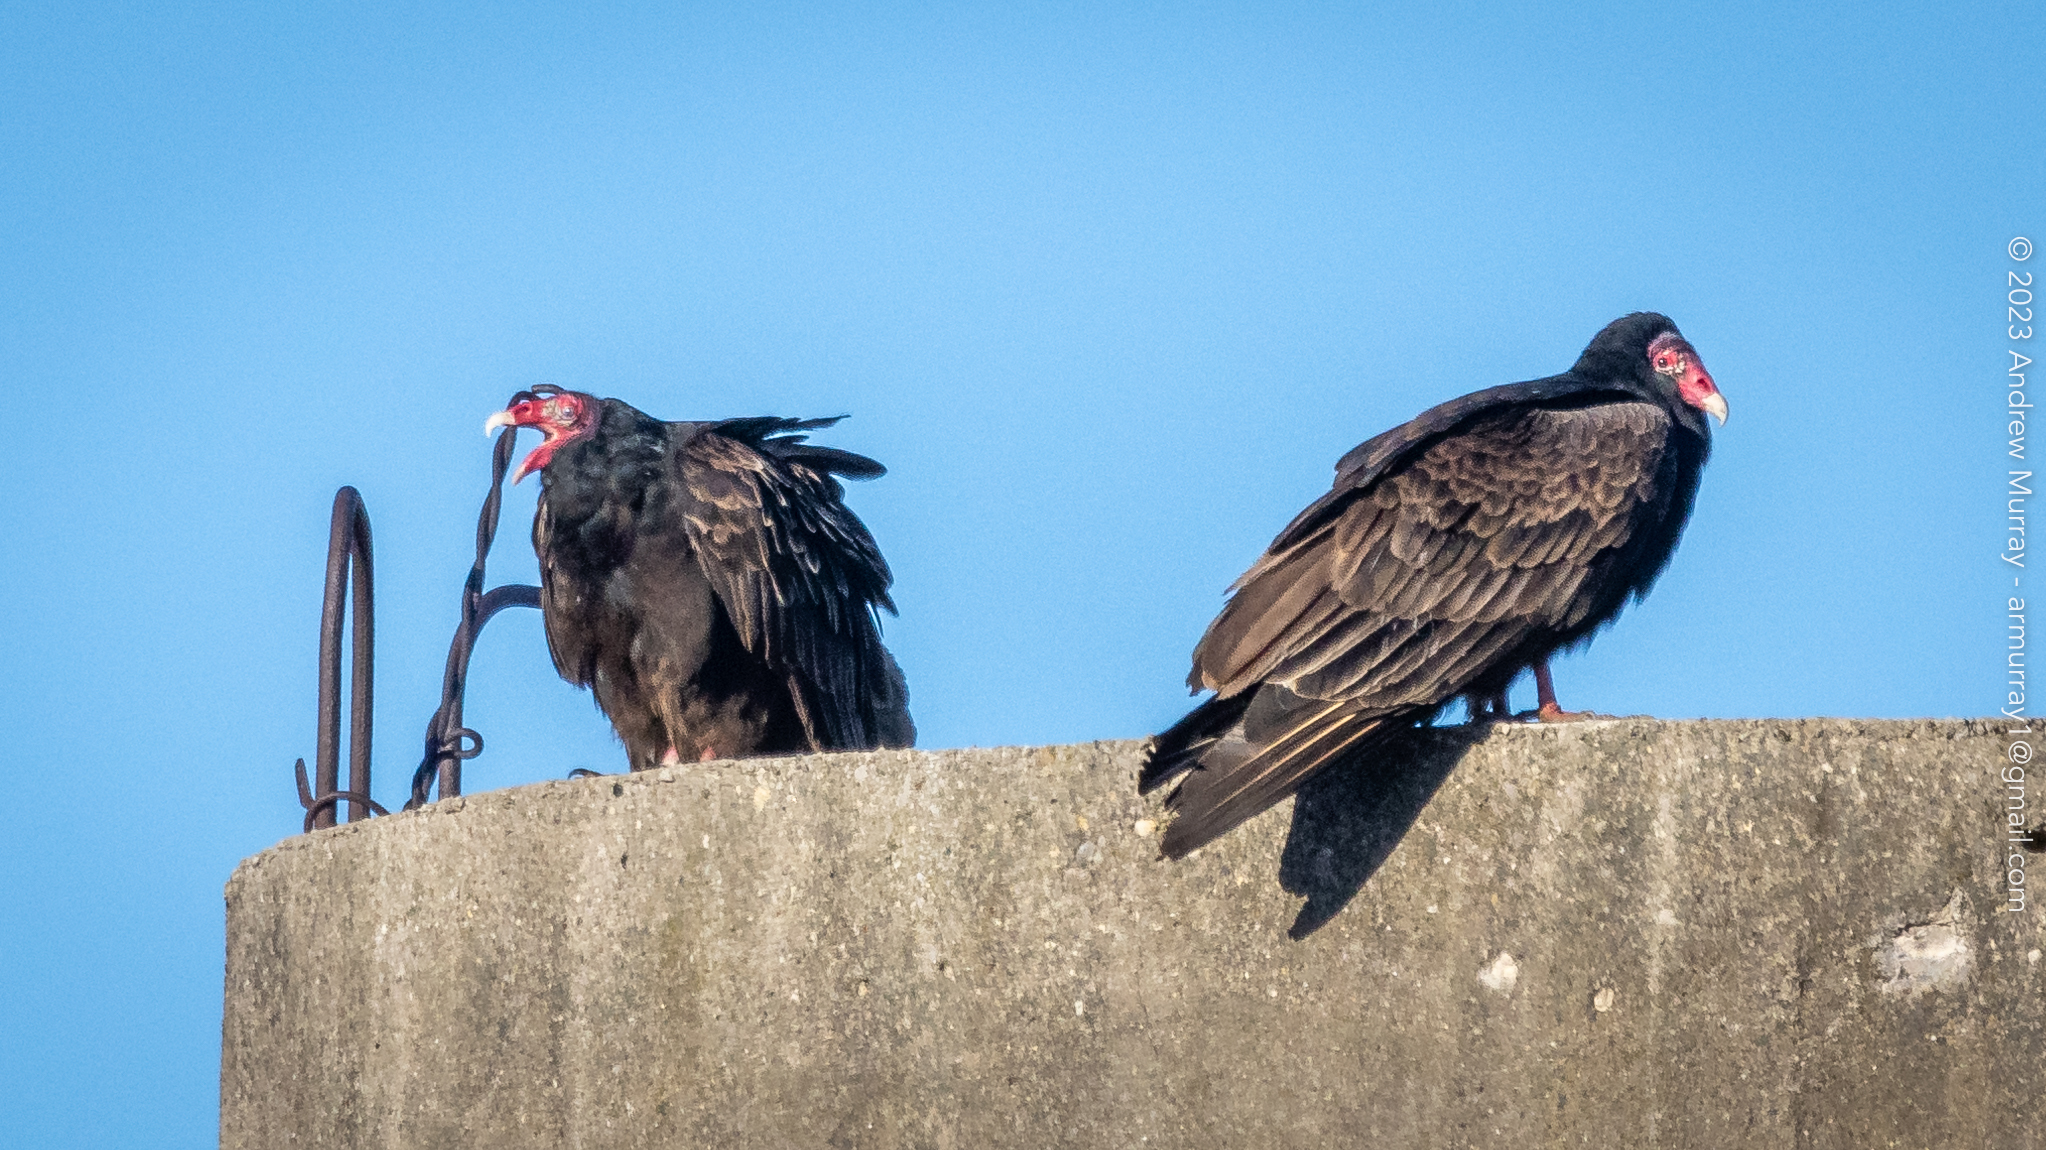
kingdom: Animalia
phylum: Chordata
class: Aves
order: Accipitriformes
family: Cathartidae
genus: Cathartes
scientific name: Cathartes aura
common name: Turkey vulture
